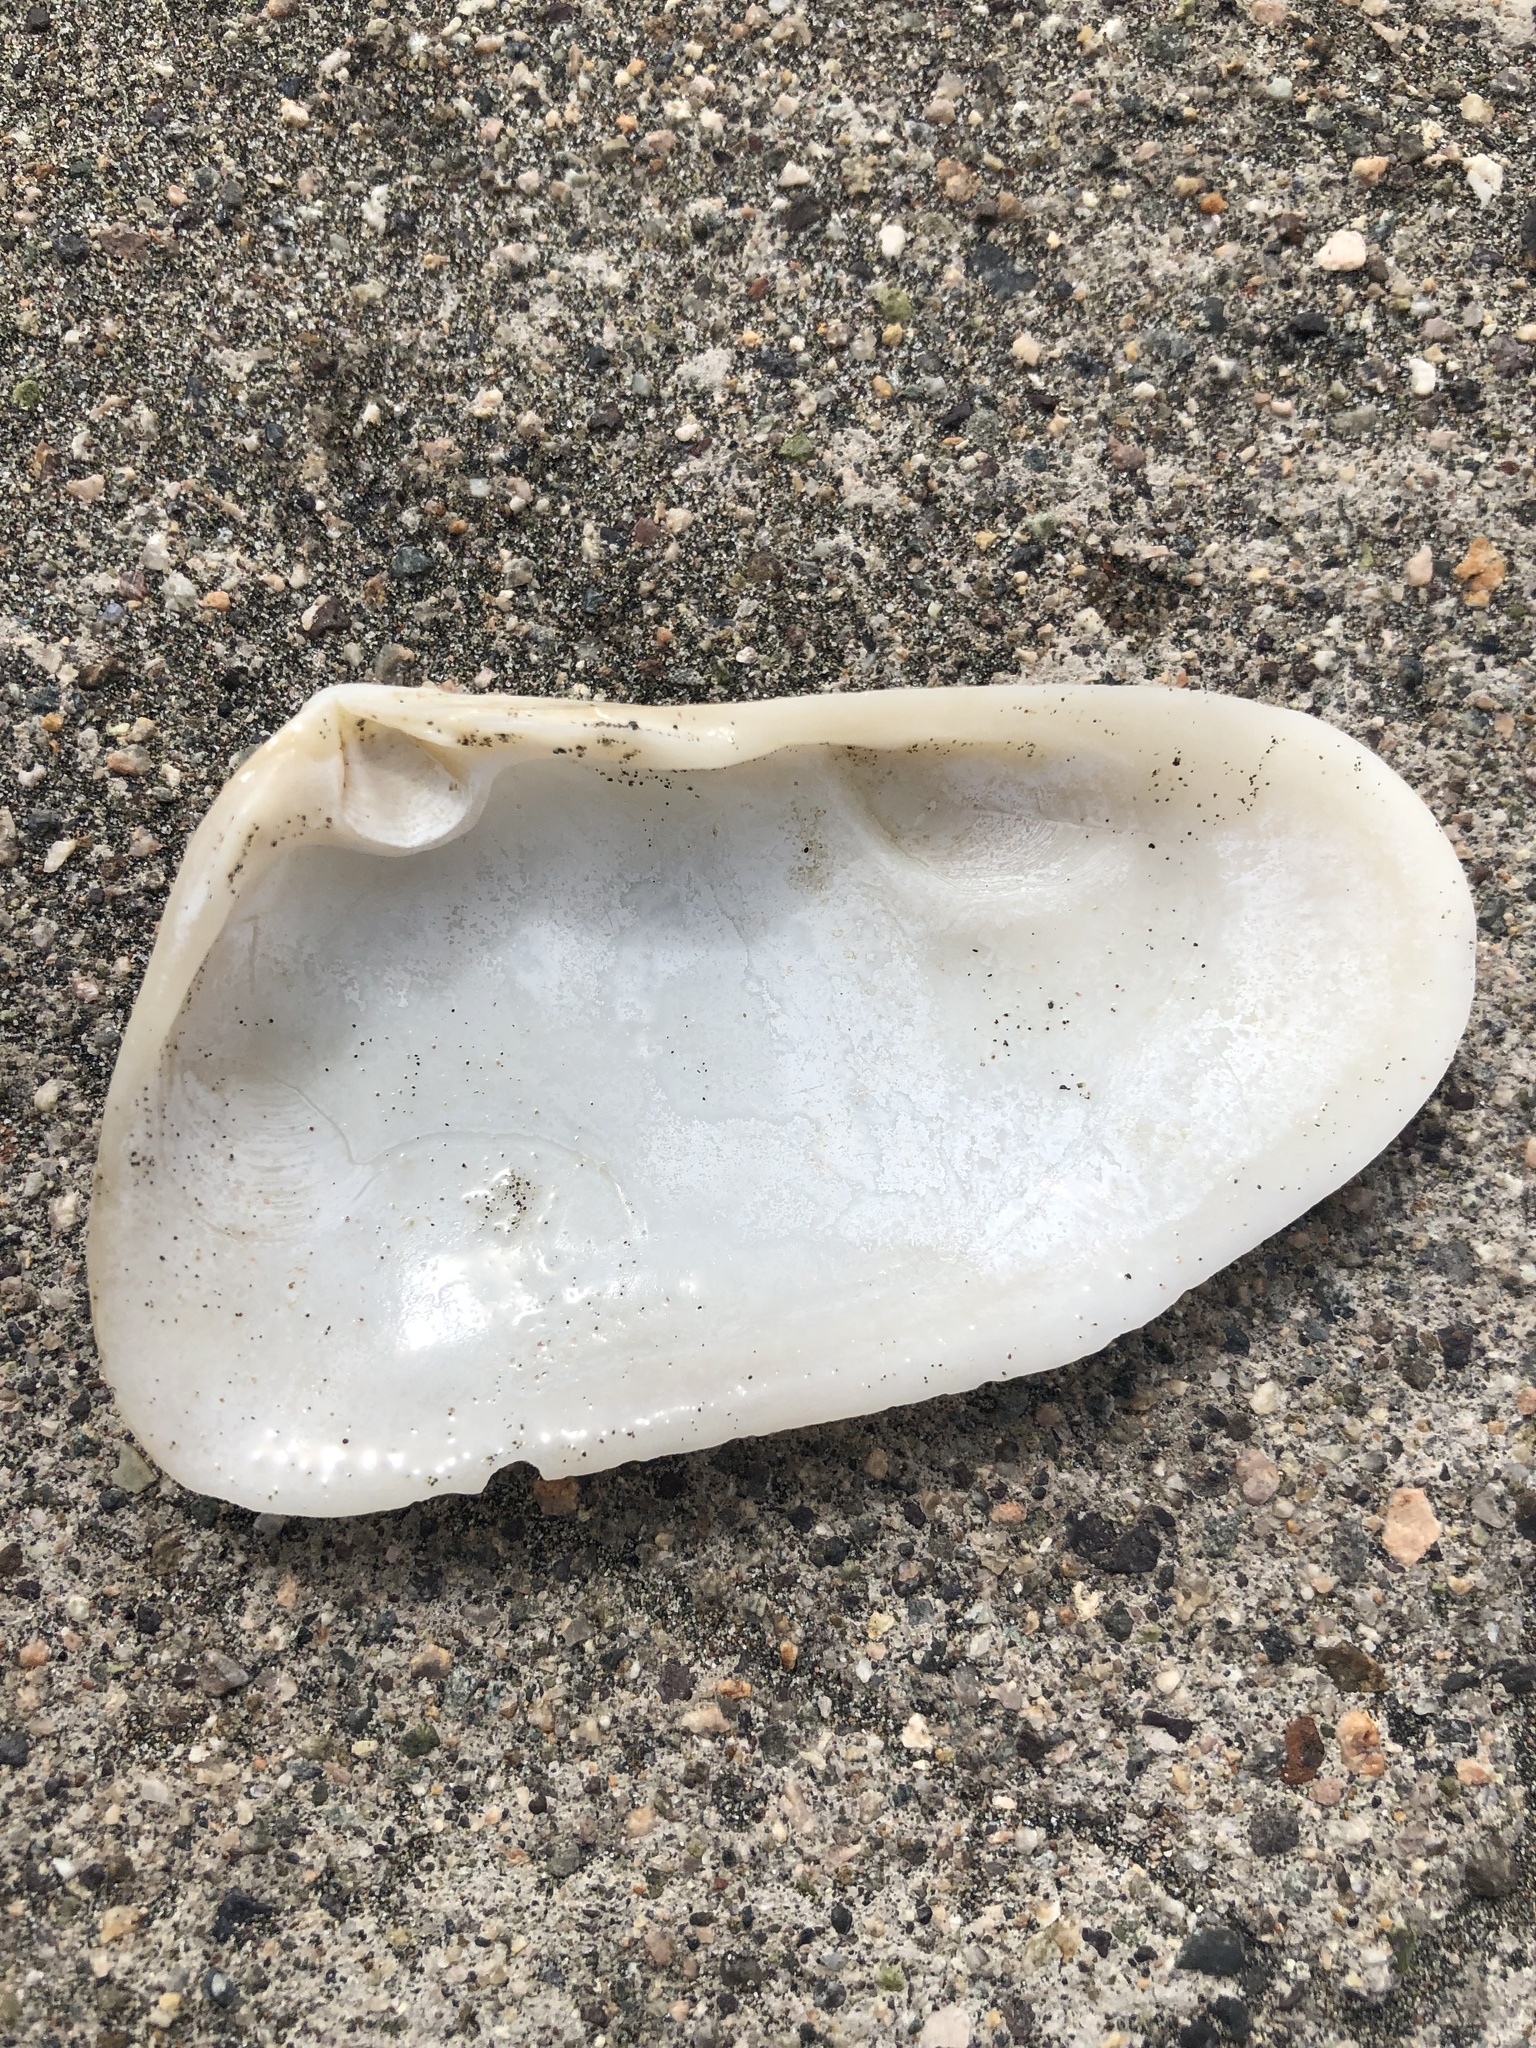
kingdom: Animalia
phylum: Mollusca
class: Bivalvia
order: Venerida
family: Mesodesmatidae
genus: Mesodesma
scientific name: Mesodesma donacium
